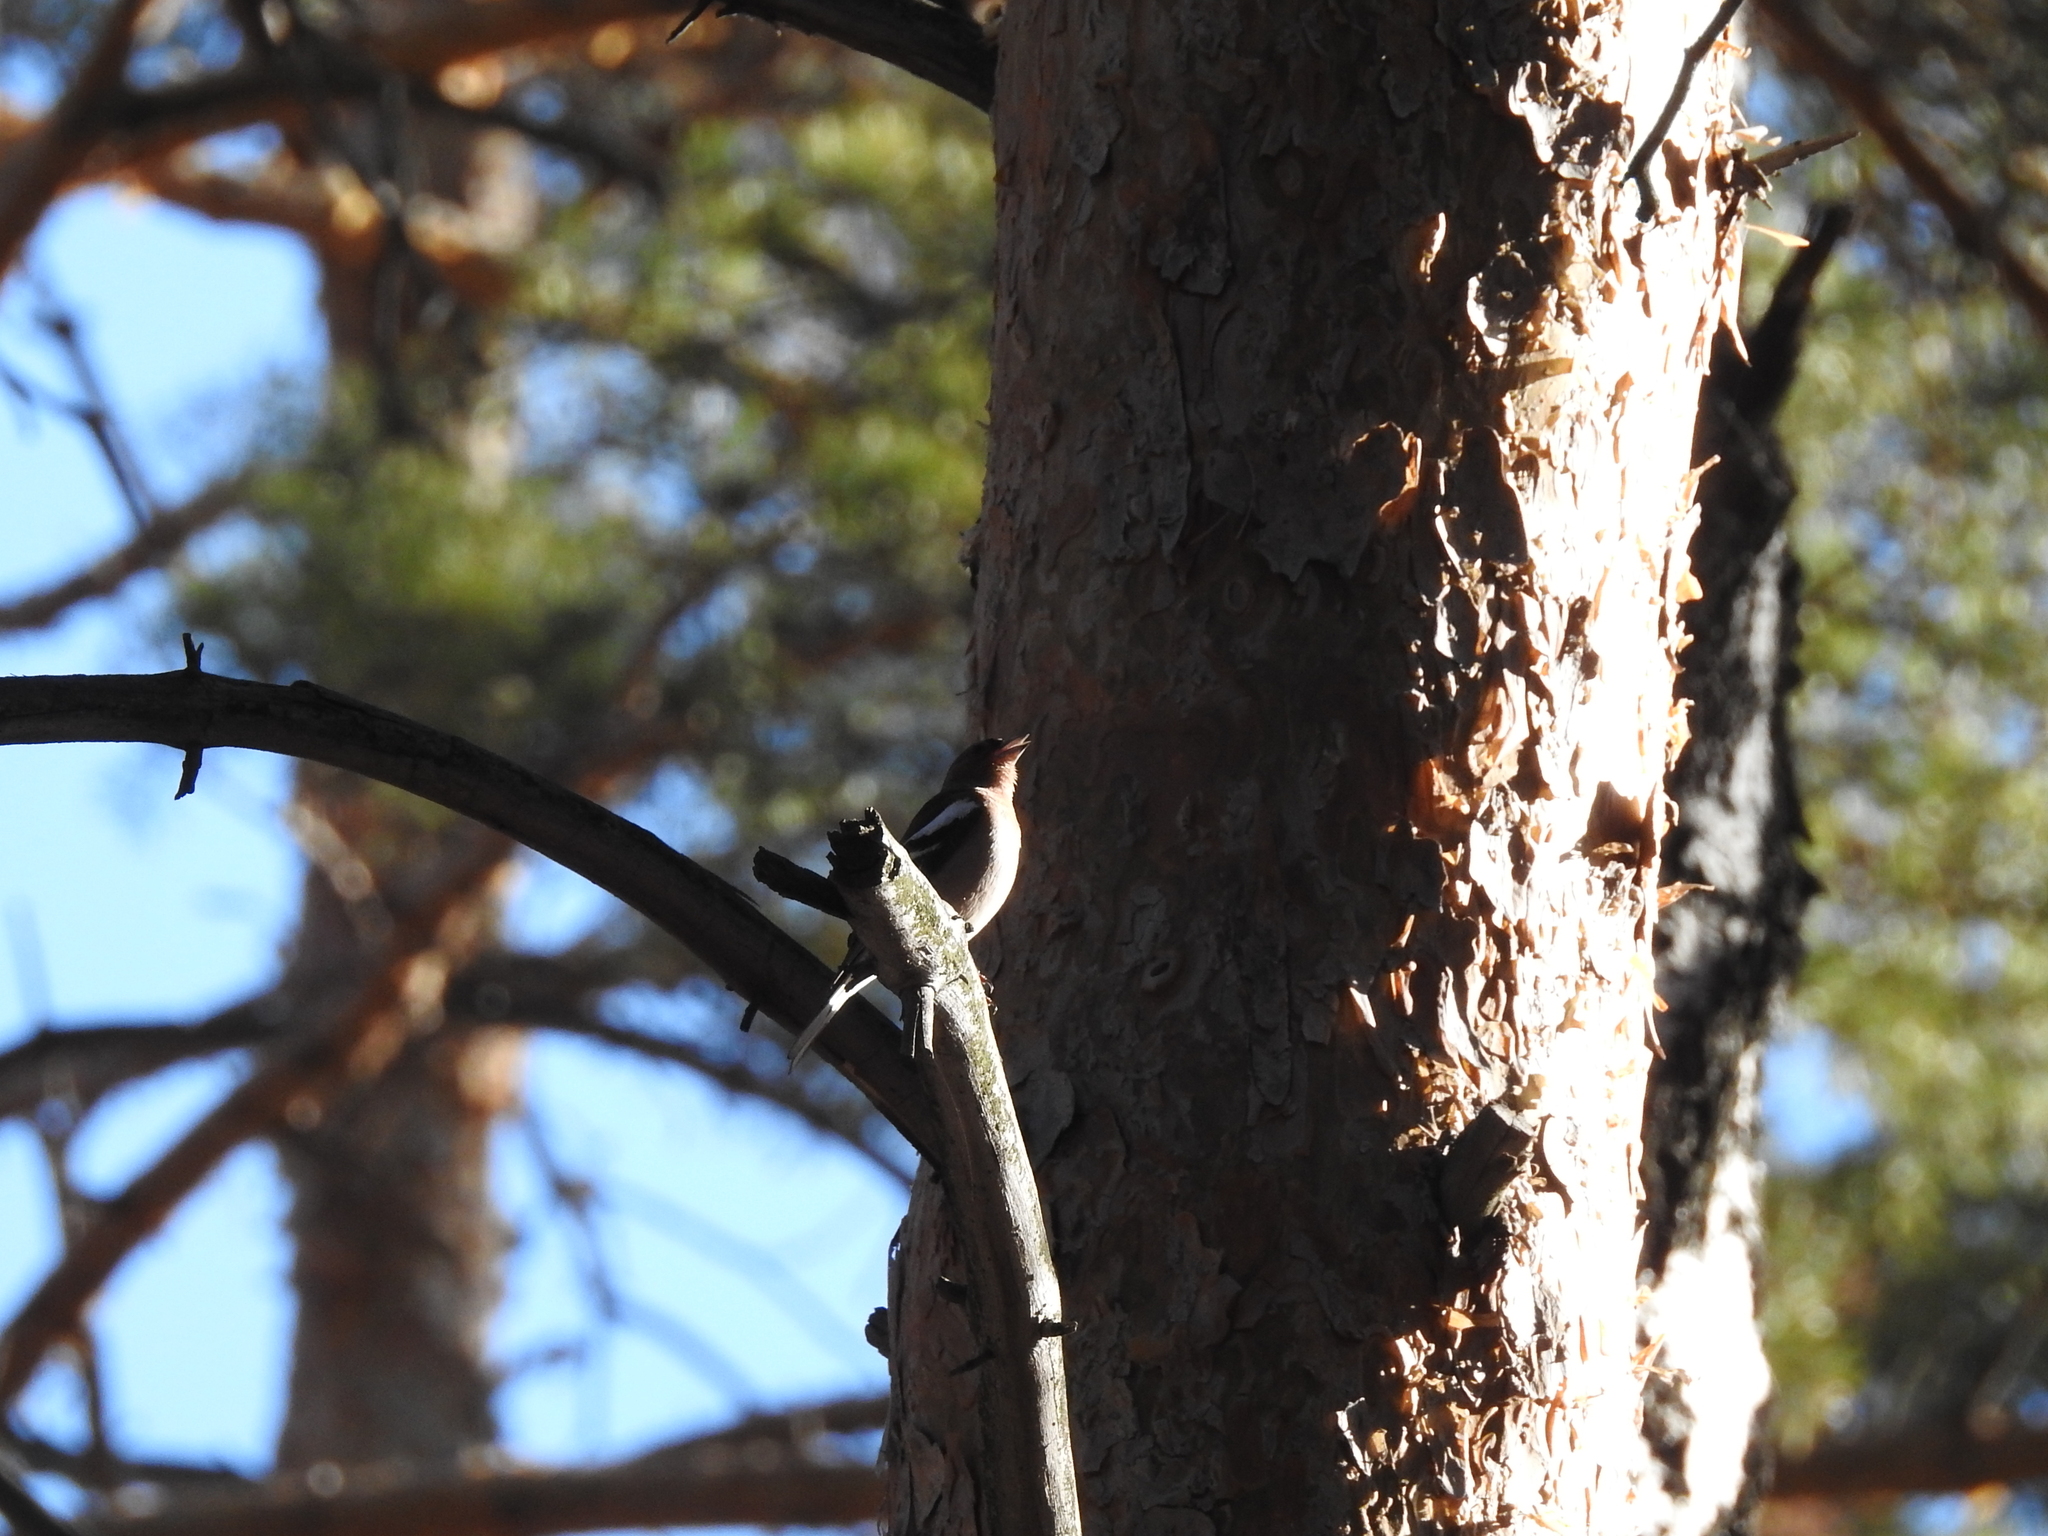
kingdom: Animalia
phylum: Chordata
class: Aves
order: Passeriformes
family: Fringillidae
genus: Fringilla
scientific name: Fringilla coelebs
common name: Common chaffinch
